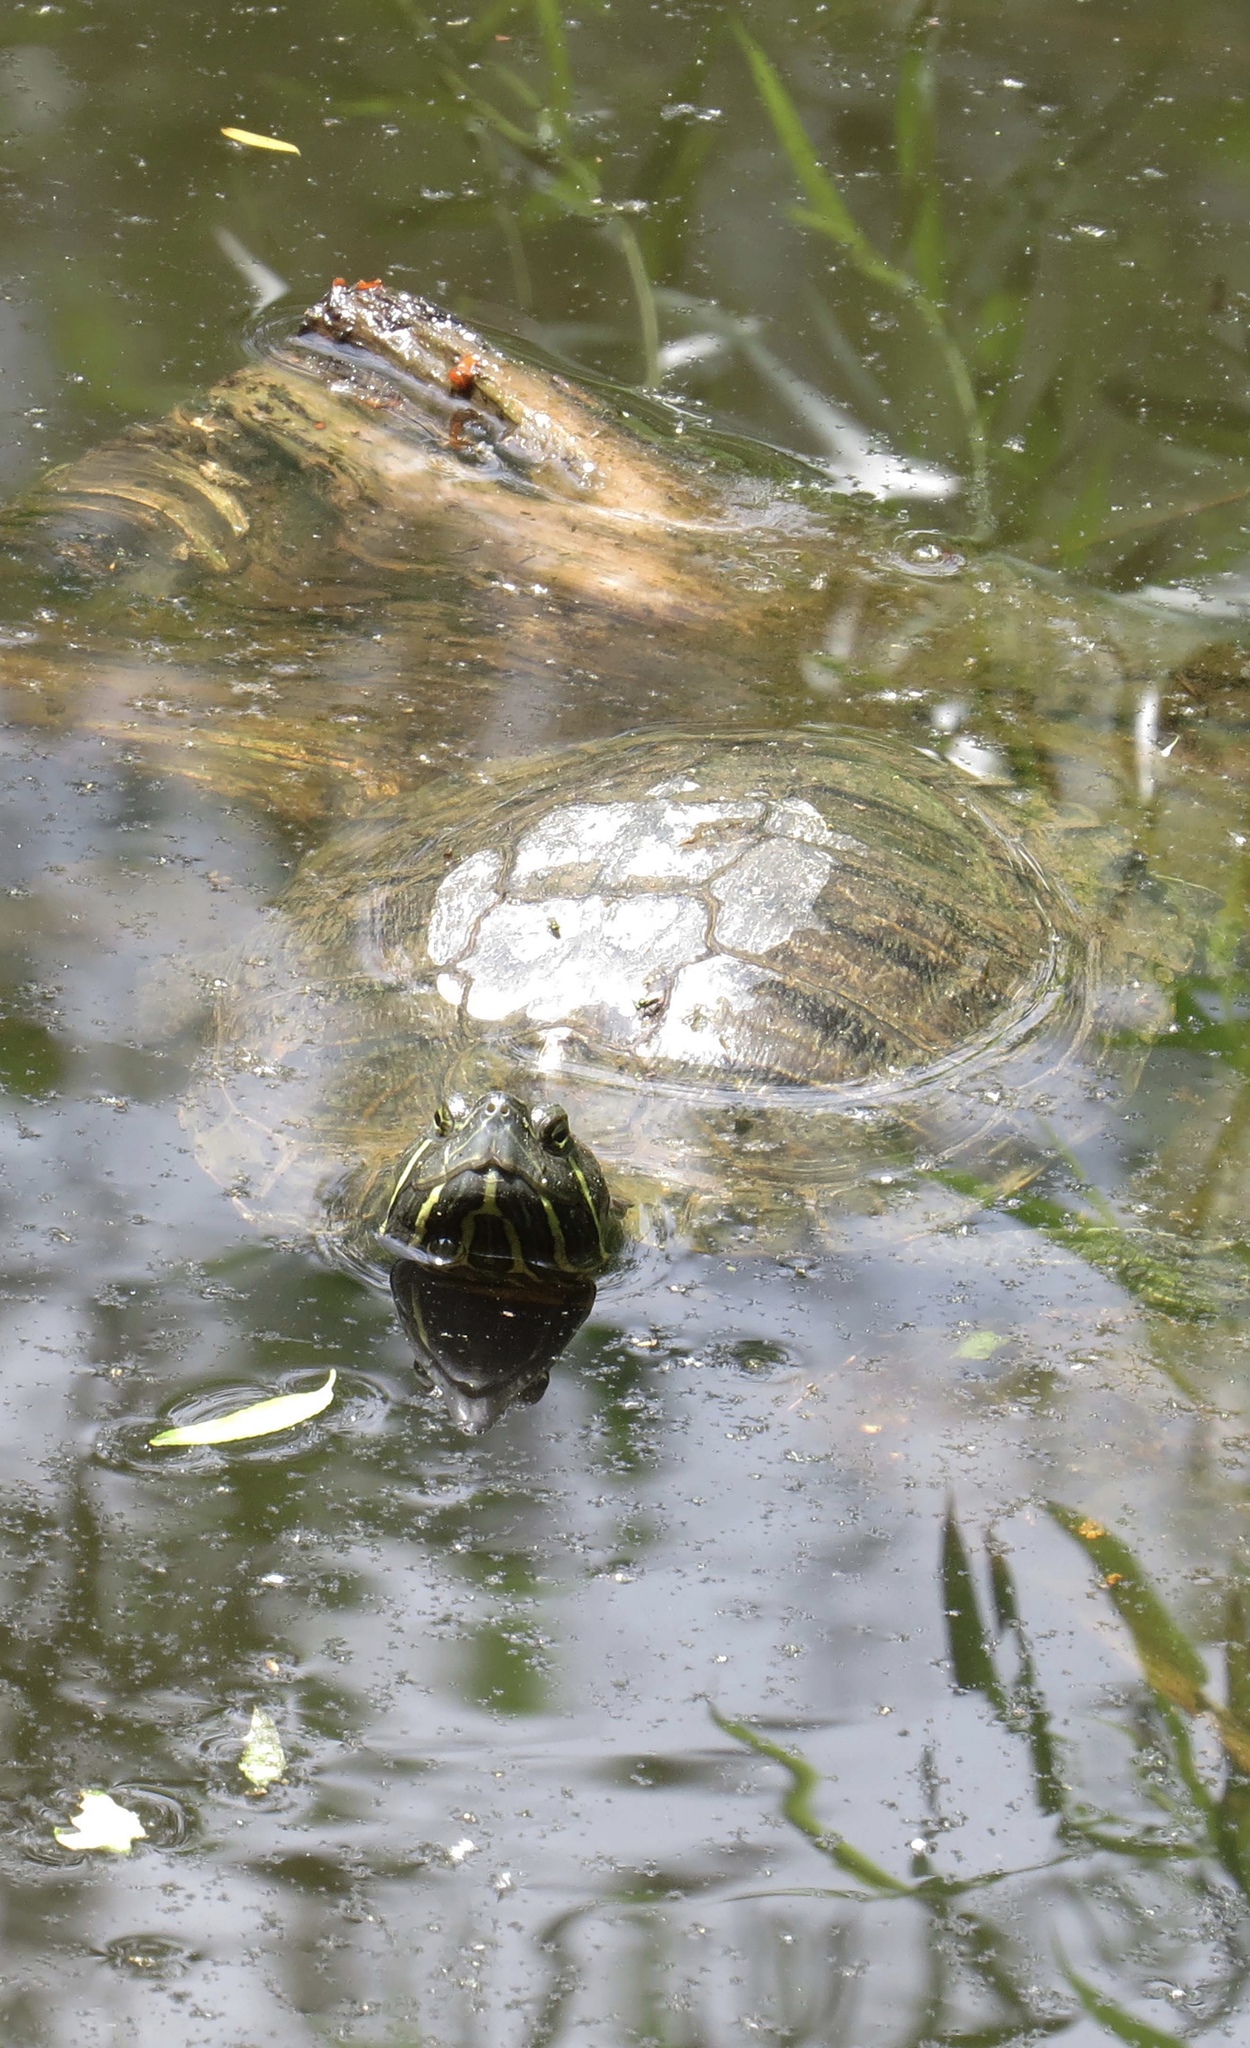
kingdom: Animalia
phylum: Chordata
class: Testudines
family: Emydidae
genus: Trachemys
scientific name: Trachemys scripta
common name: Slider
